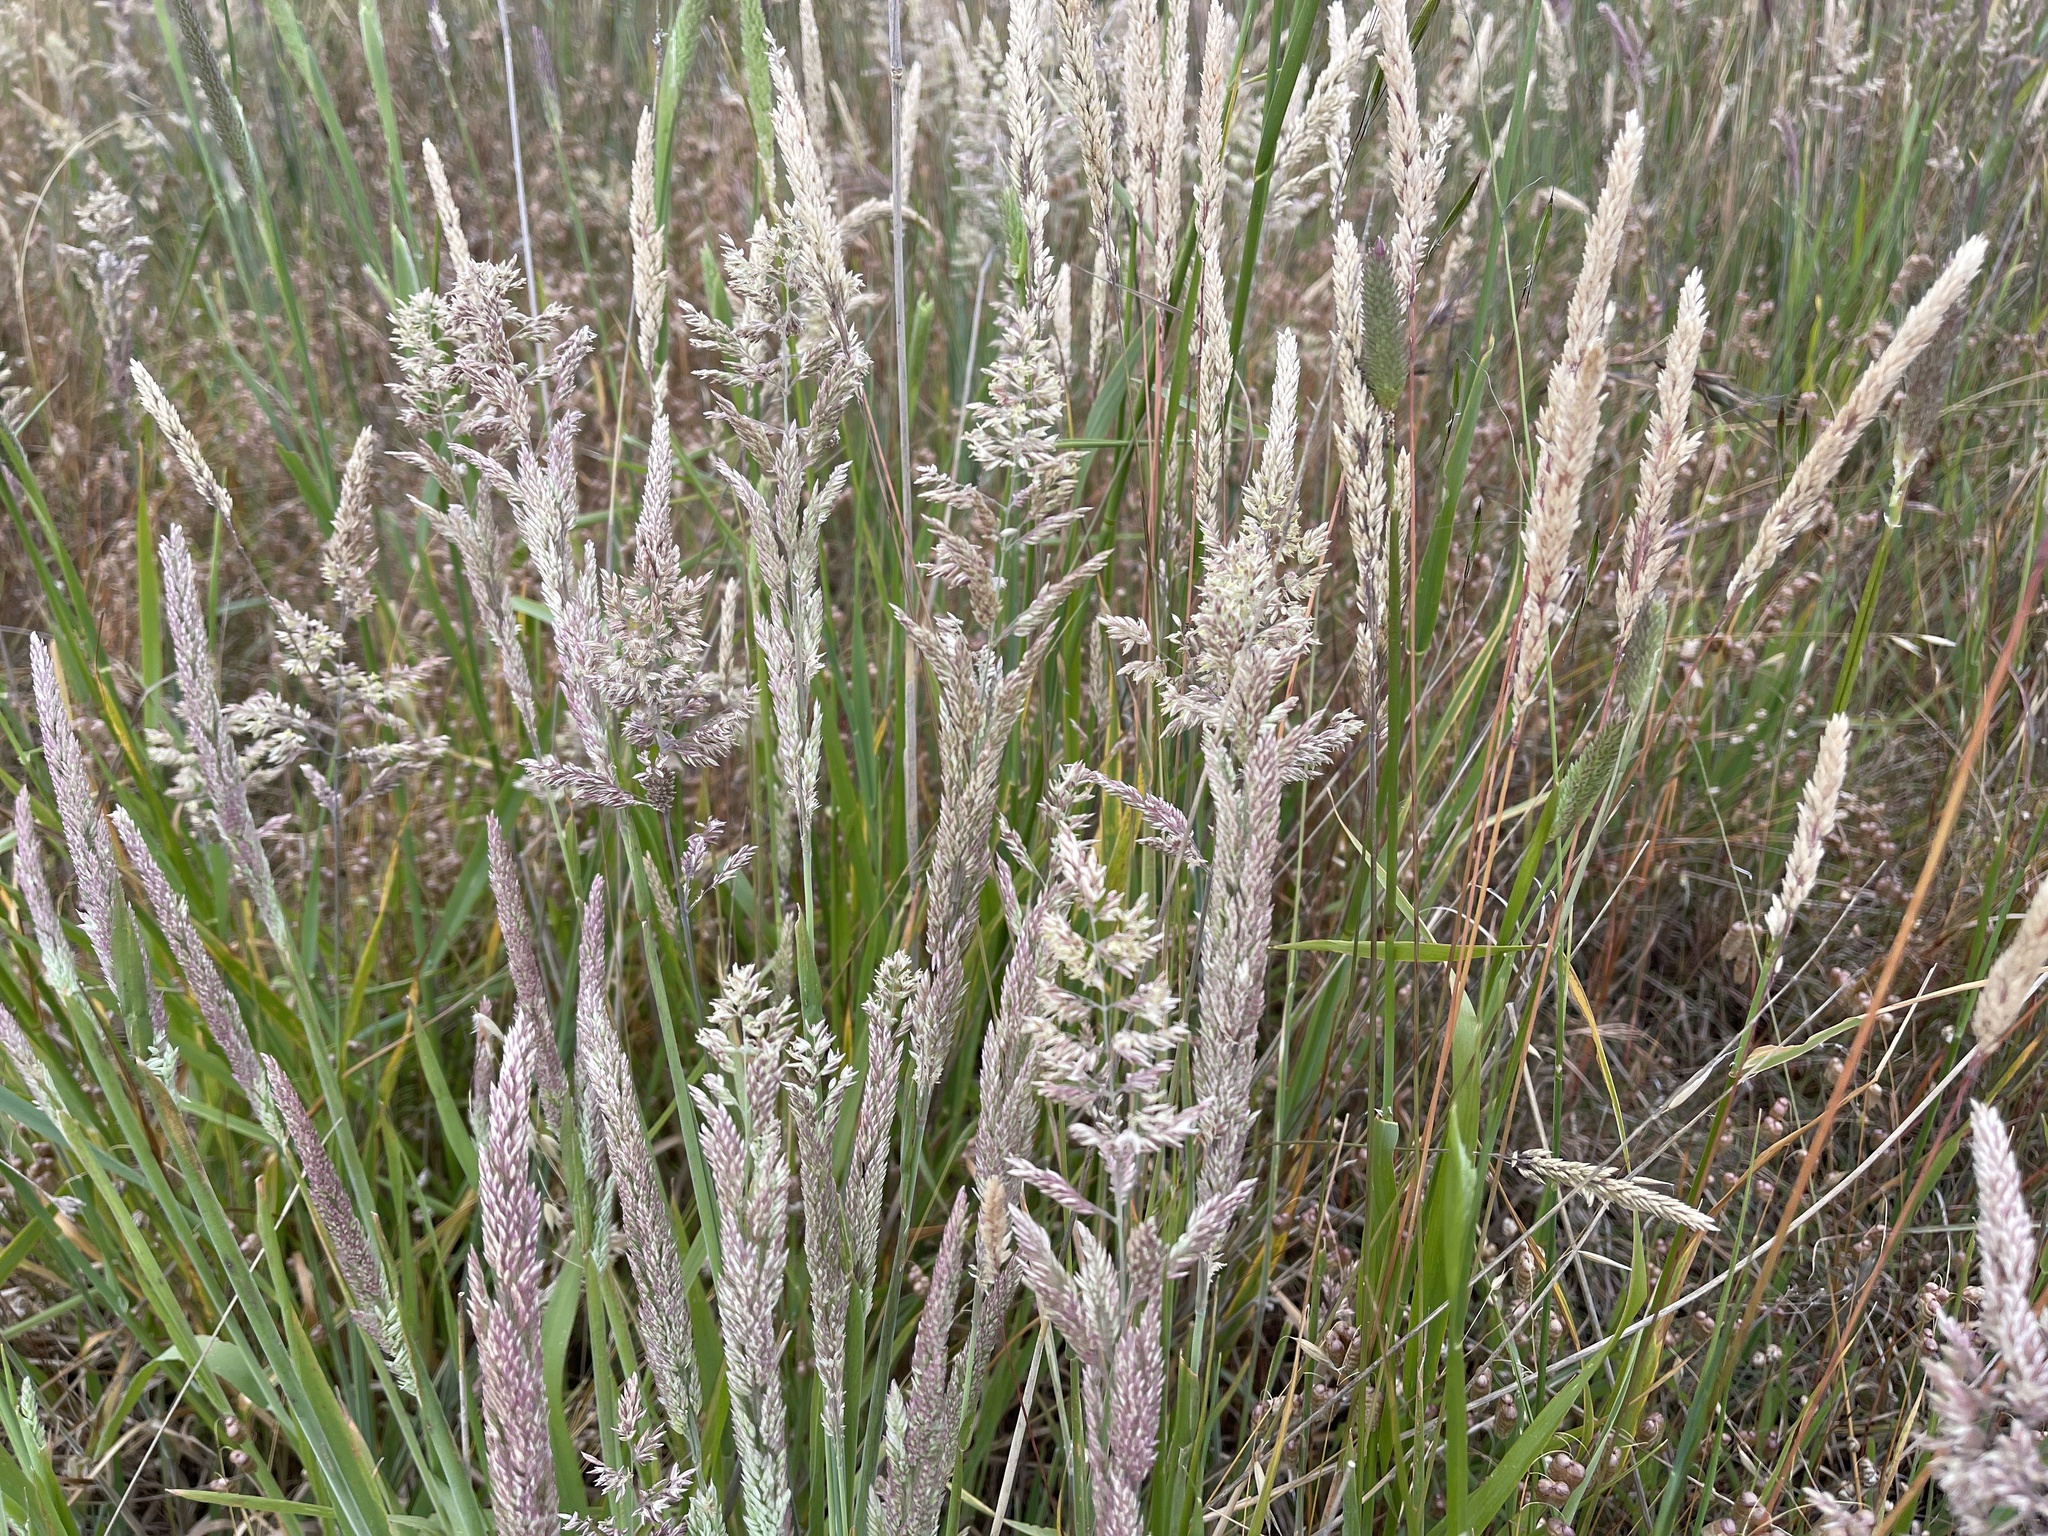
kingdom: Plantae
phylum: Tracheophyta
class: Liliopsida
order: Poales
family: Poaceae
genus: Holcus
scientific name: Holcus lanatus
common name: Yorkshire-fog
